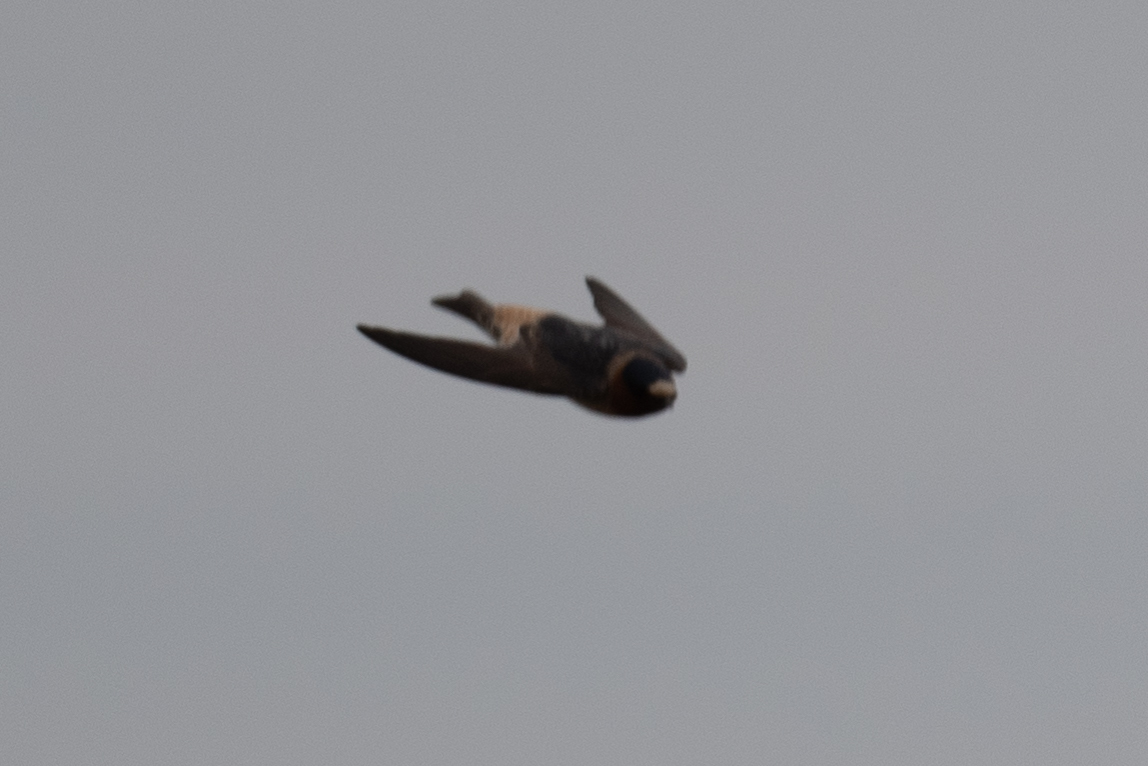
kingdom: Animalia
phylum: Chordata
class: Aves
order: Passeriformes
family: Hirundinidae
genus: Petrochelidon
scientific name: Petrochelidon pyrrhonota
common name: American cliff swallow
